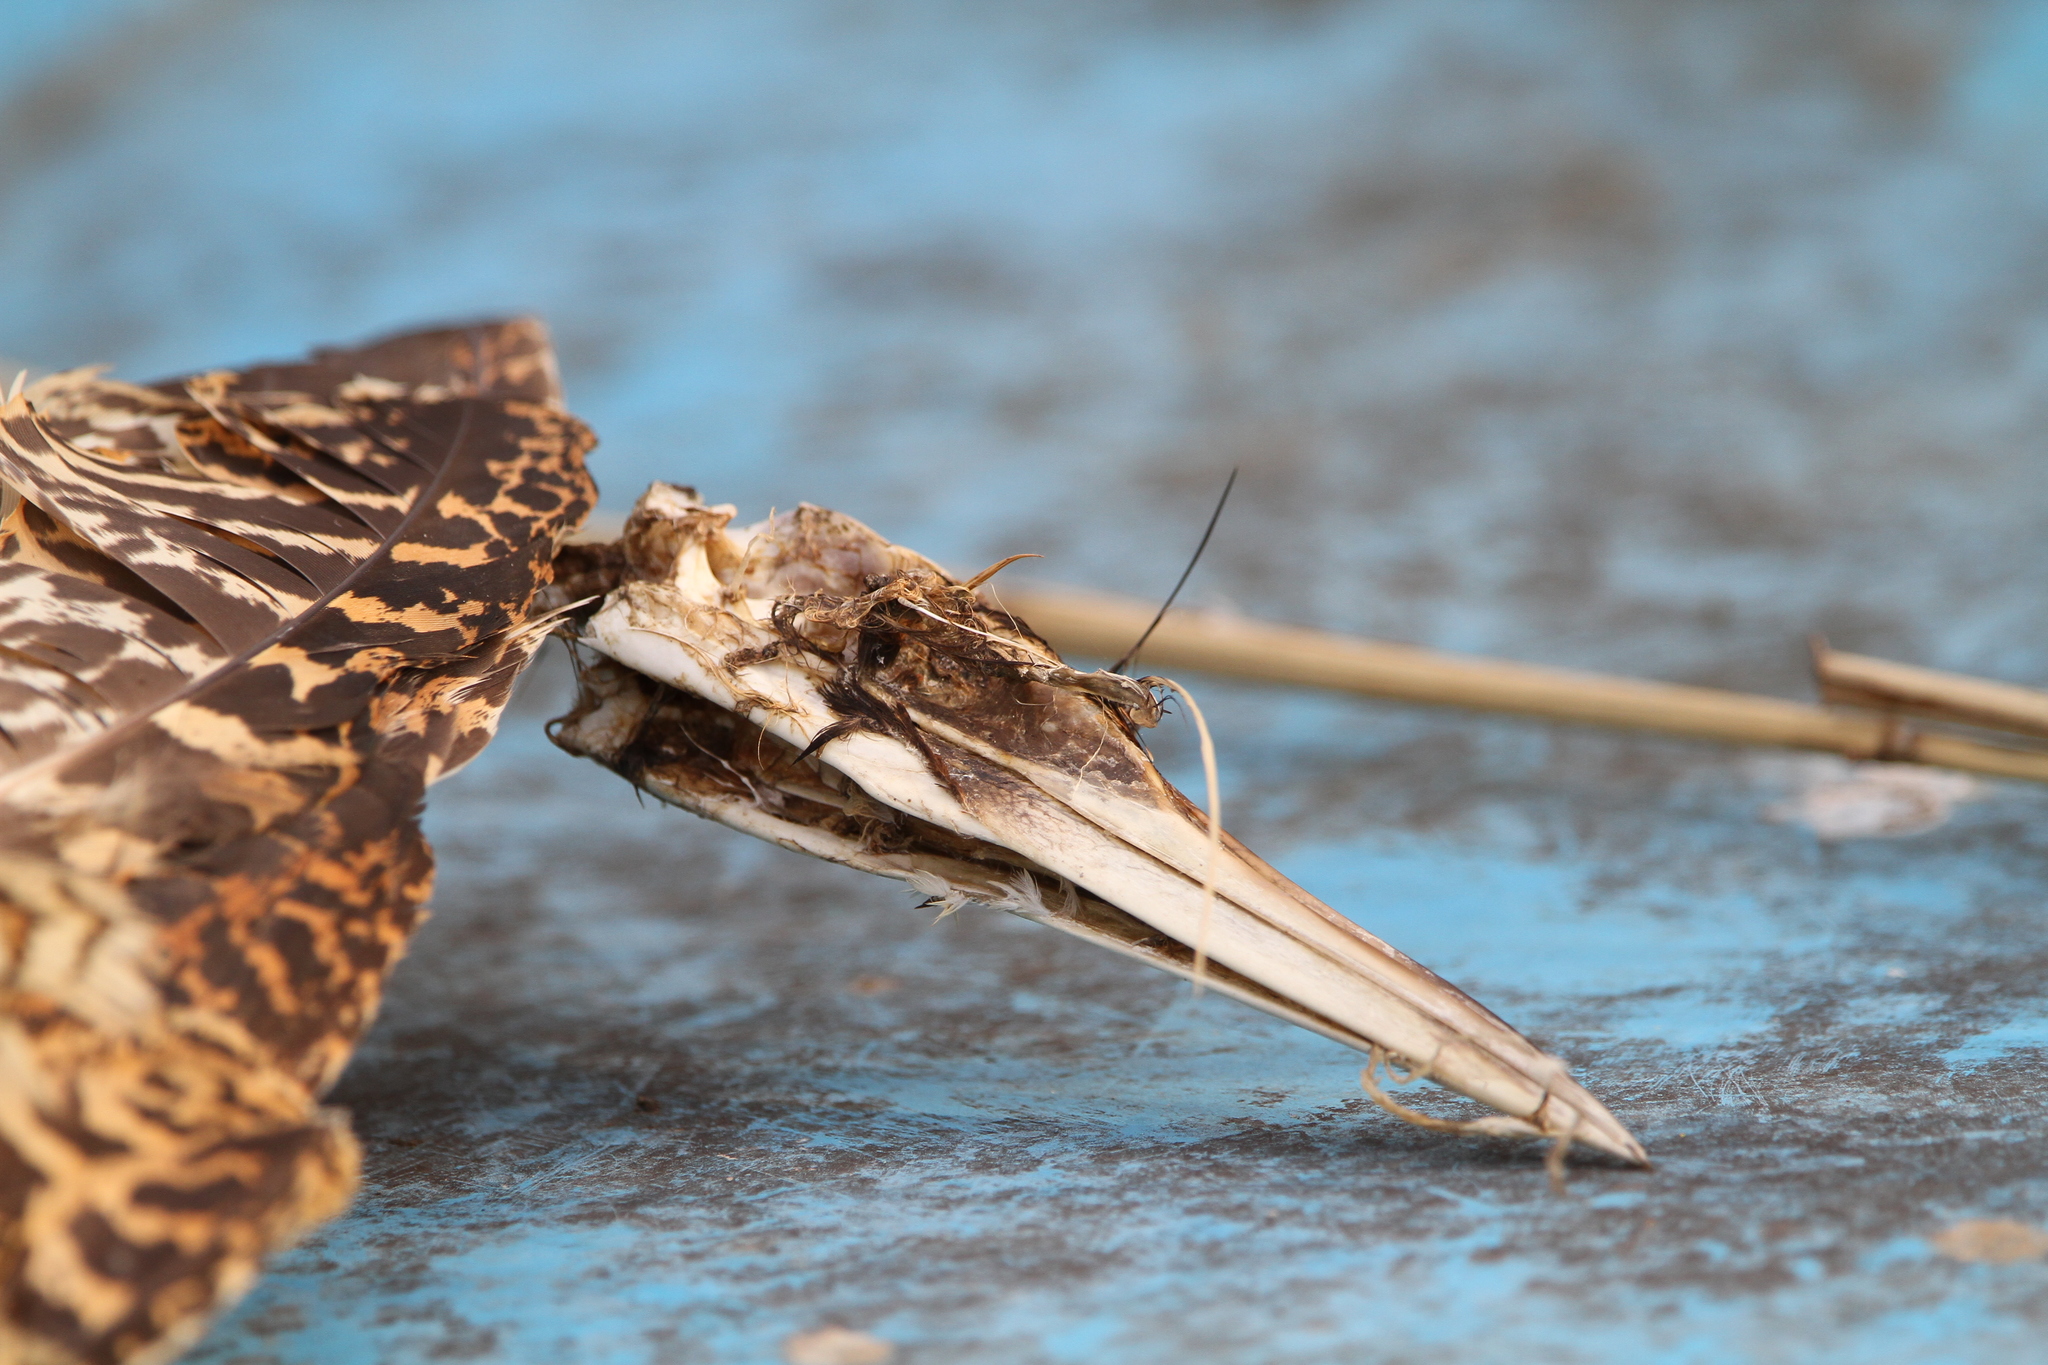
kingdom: Animalia
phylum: Chordata
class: Aves
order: Pelecaniformes
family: Ardeidae
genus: Botaurus
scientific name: Botaurus stellaris
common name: Eurasian bittern
